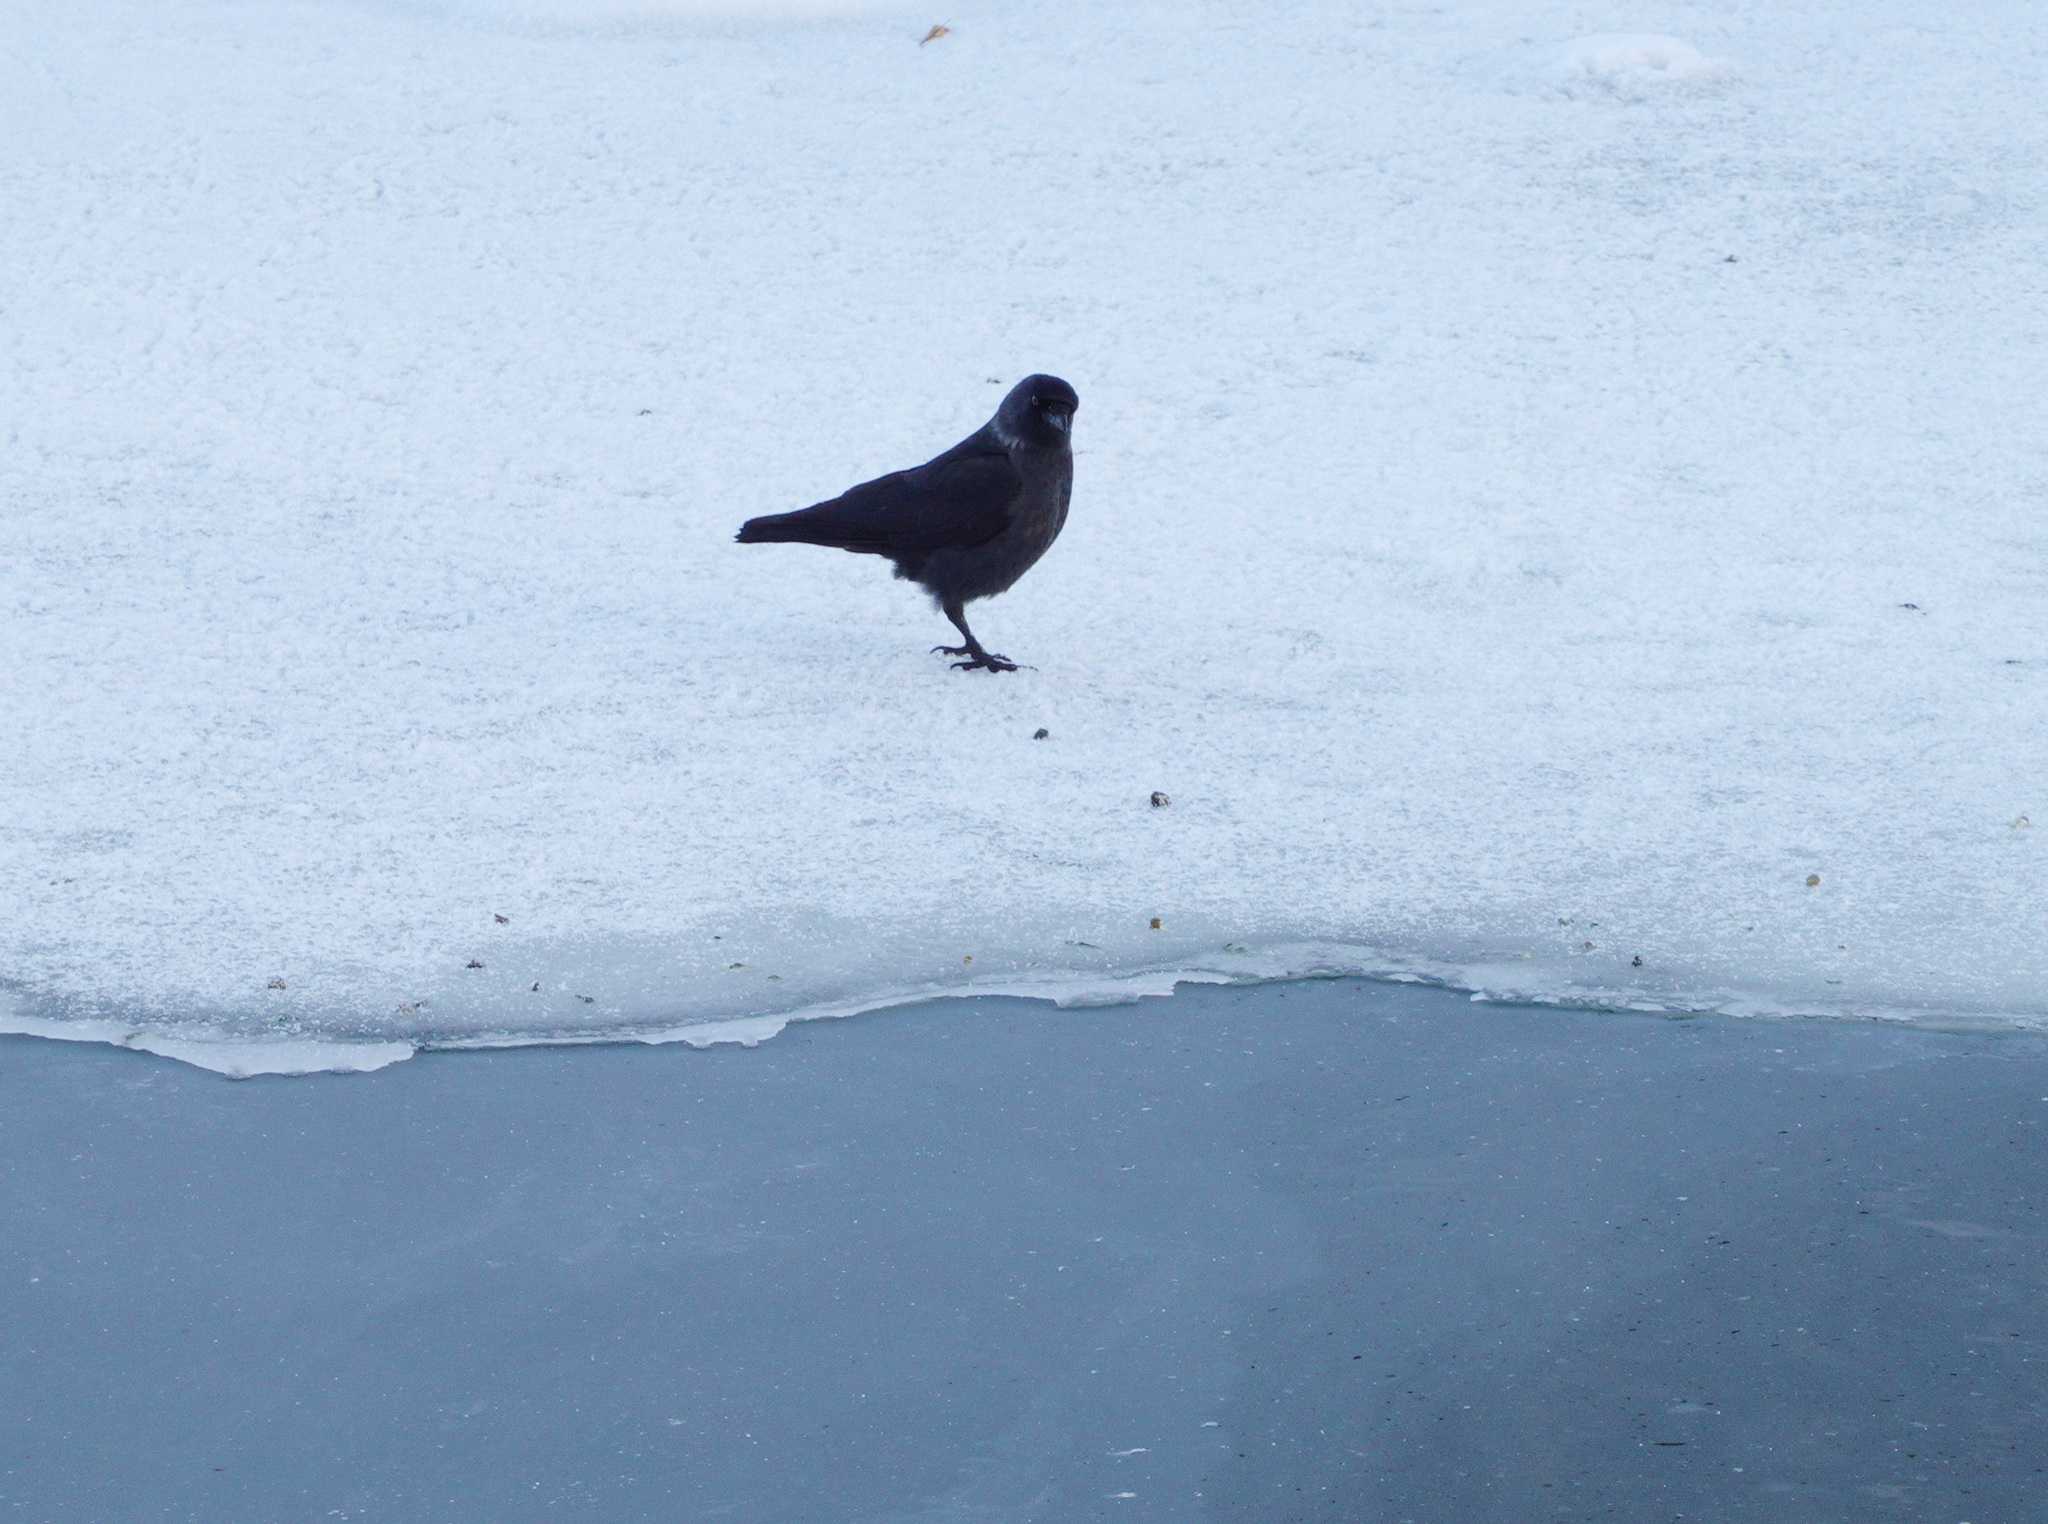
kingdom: Animalia
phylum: Chordata
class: Aves
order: Passeriformes
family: Corvidae
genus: Coloeus
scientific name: Coloeus monedula
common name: Western jackdaw
